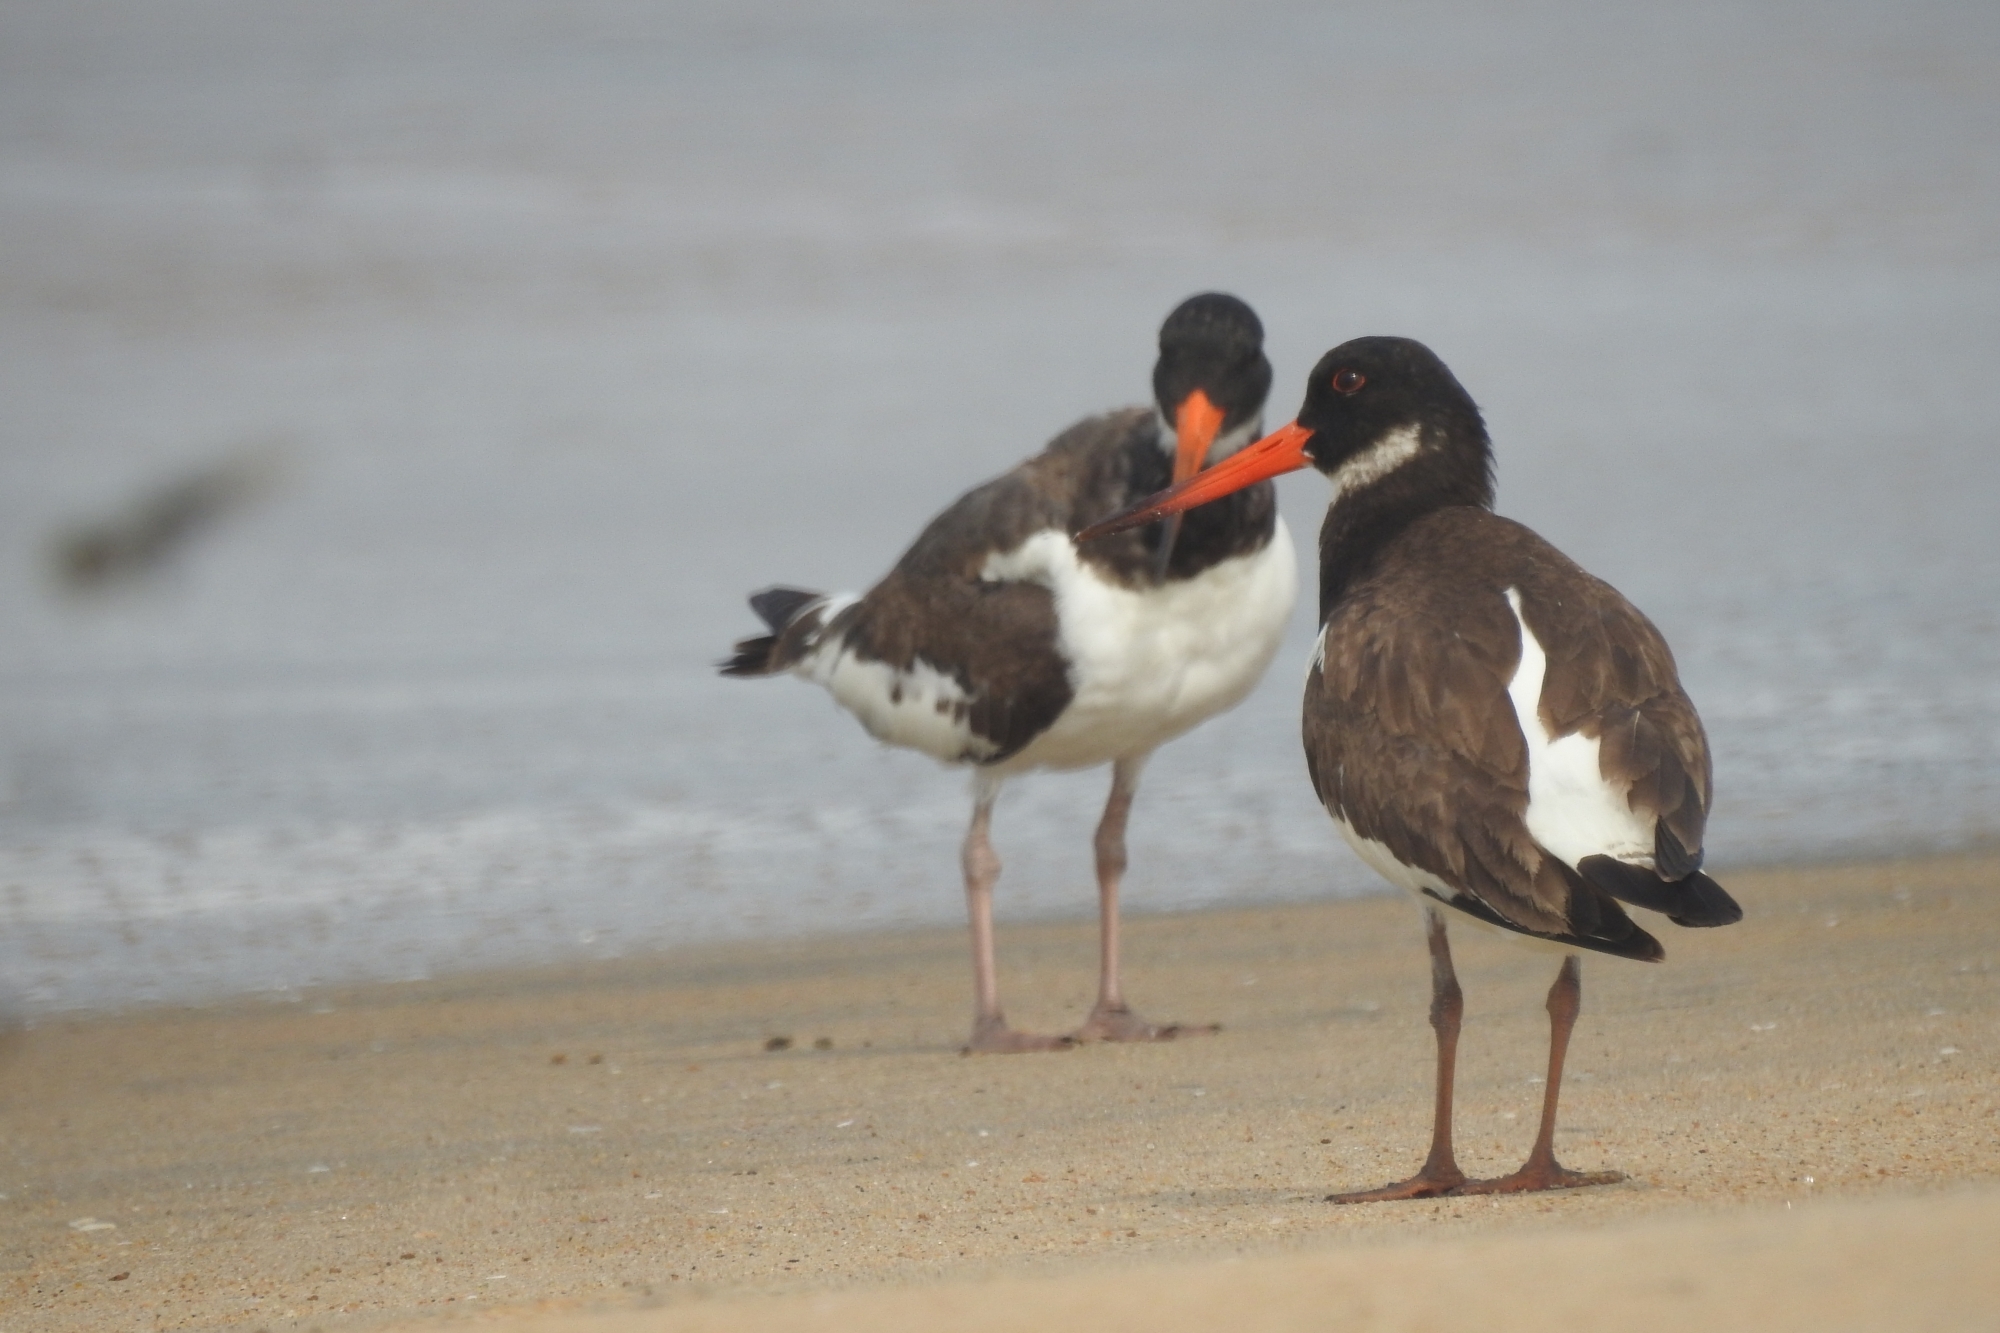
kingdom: Animalia
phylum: Chordata
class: Aves
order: Charadriiformes
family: Haematopodidae
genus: Haematopus
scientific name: Haematopus ostralegus
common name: Eurasian oystercatcher
